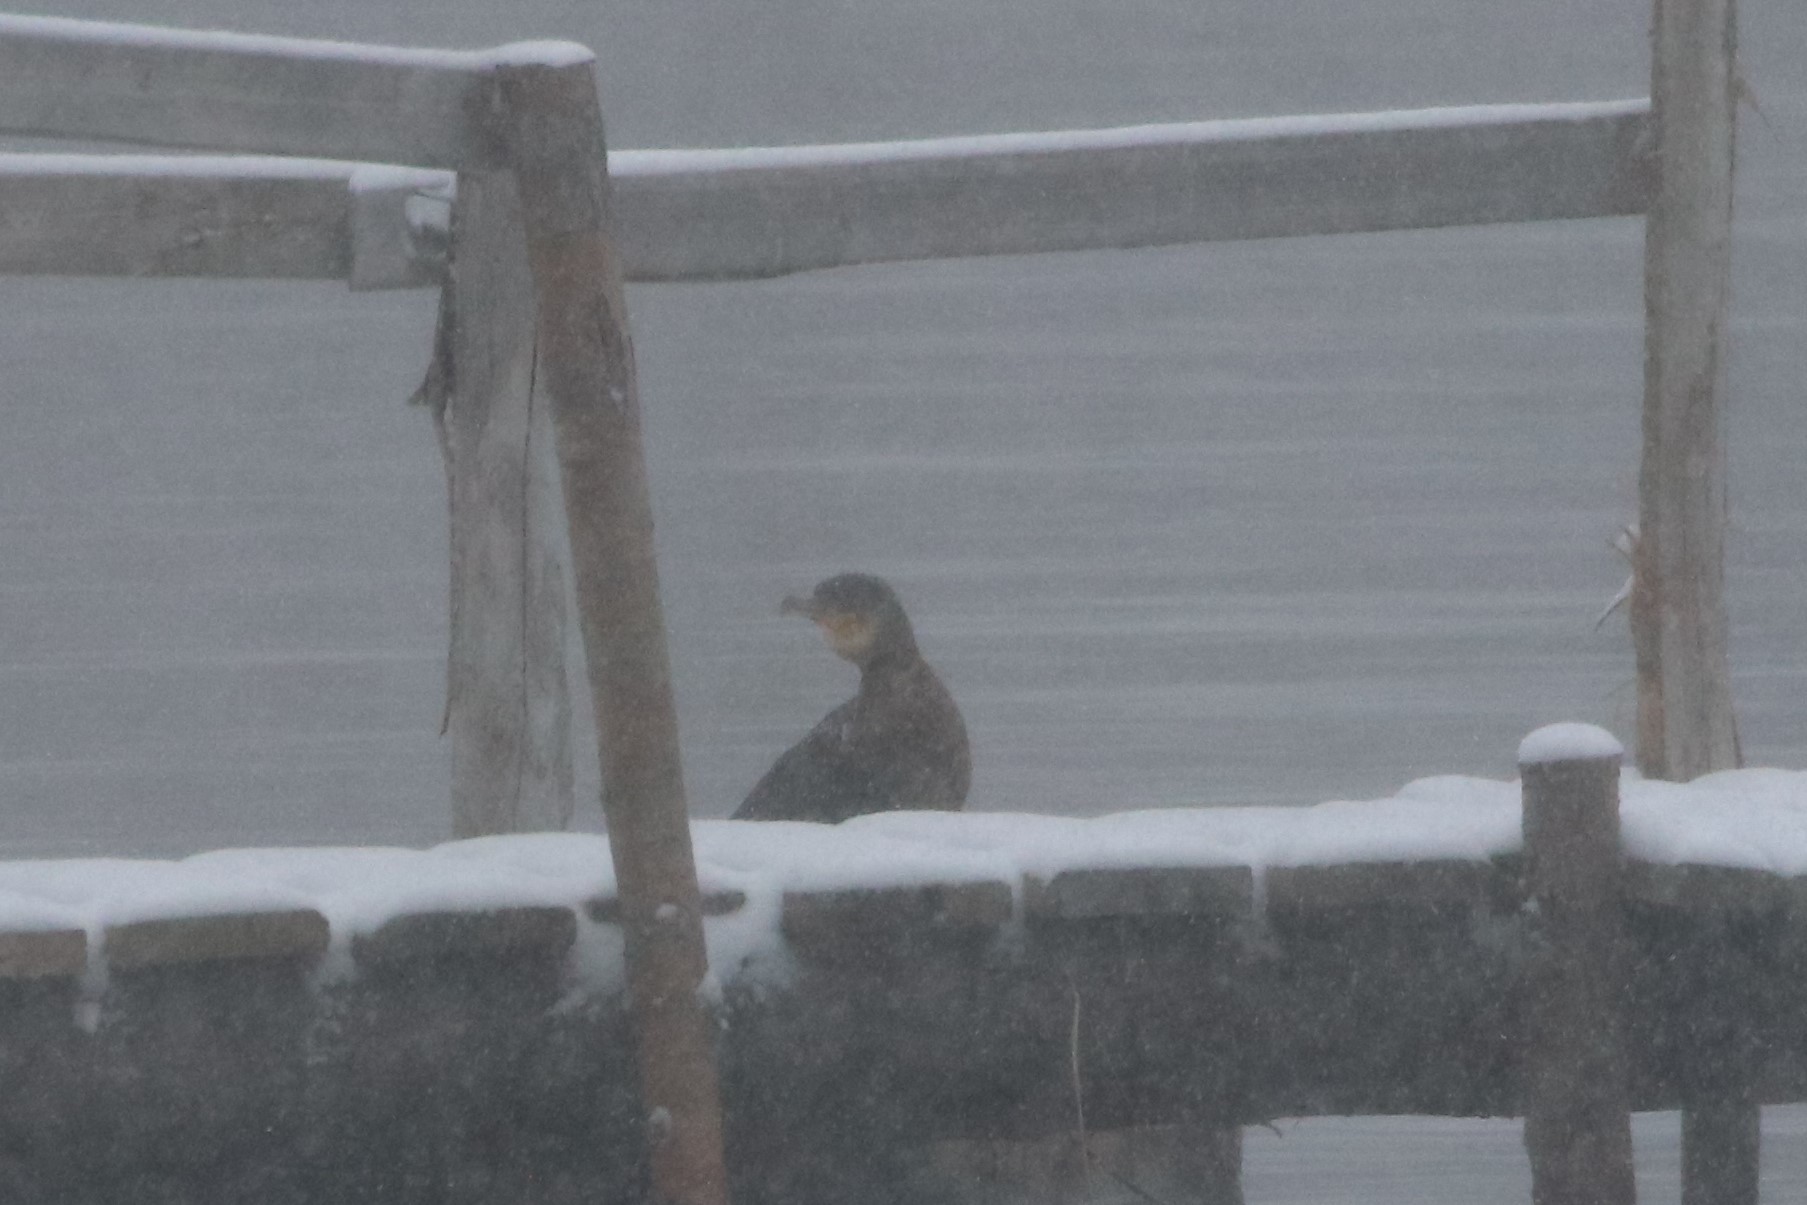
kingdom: Animalia
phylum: Chordata
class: Aves
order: Suliformes
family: Phalacrocoracidae
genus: Phalacrocorax
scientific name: Phalacrocorax carbo
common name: Great cormorant
